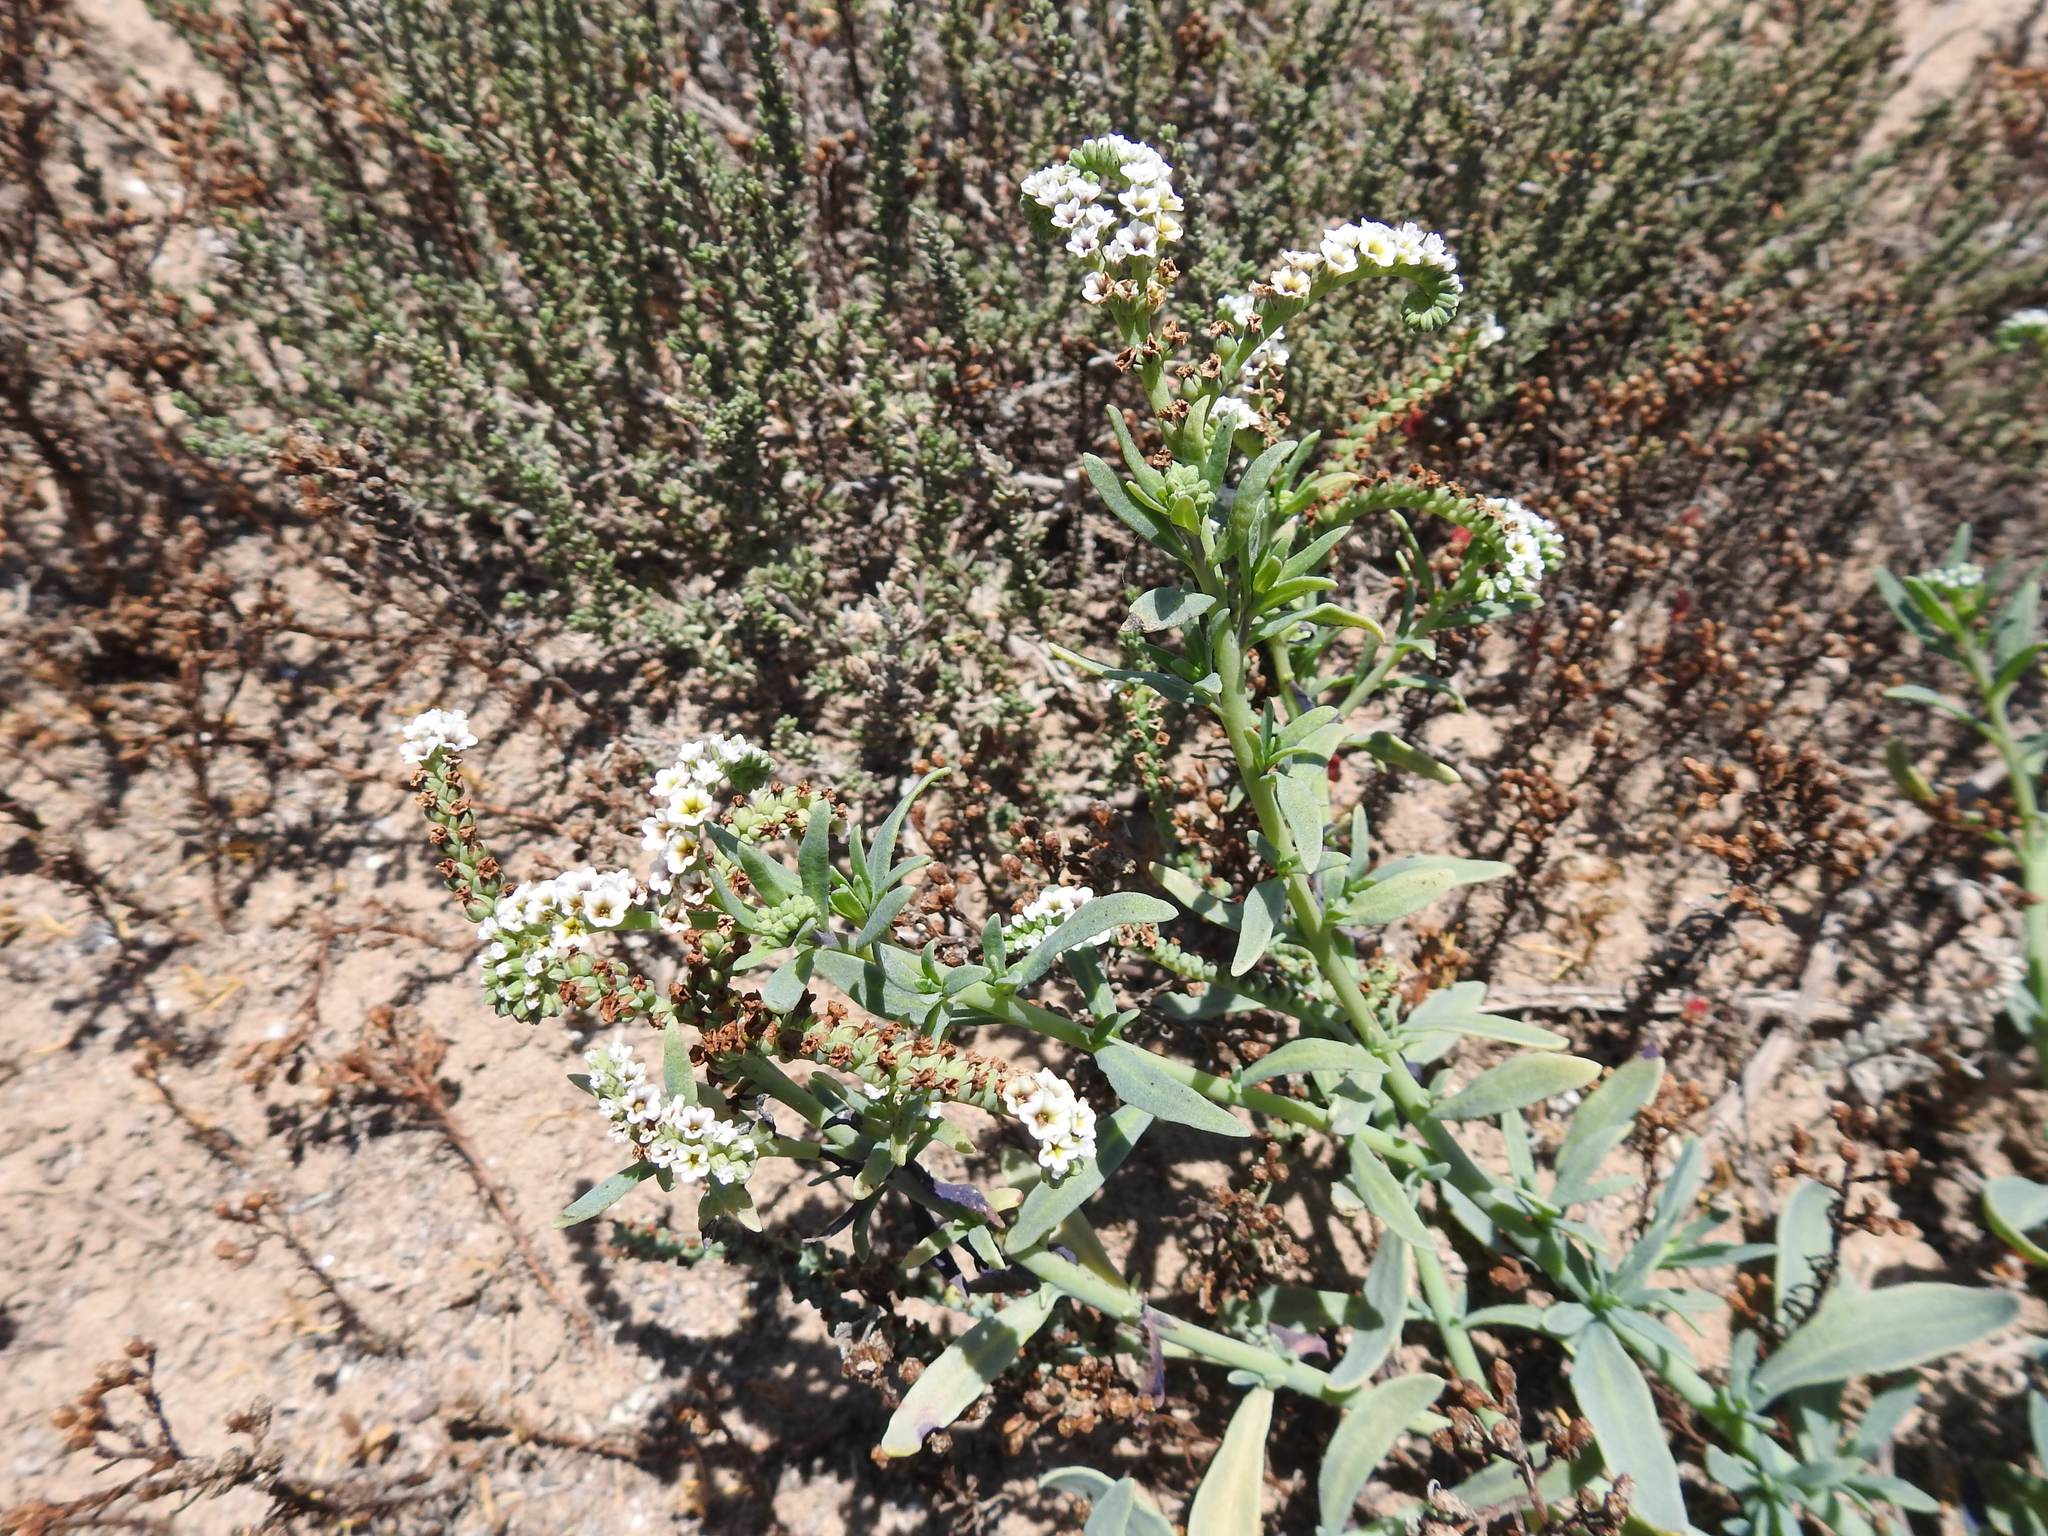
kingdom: Plantae
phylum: Tracheophyta
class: Magnoliopsida
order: Boraginales
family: Heliotropiaceae
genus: Heliotropium
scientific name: Heliotropium curassavicum
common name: Seaside heliotrope
